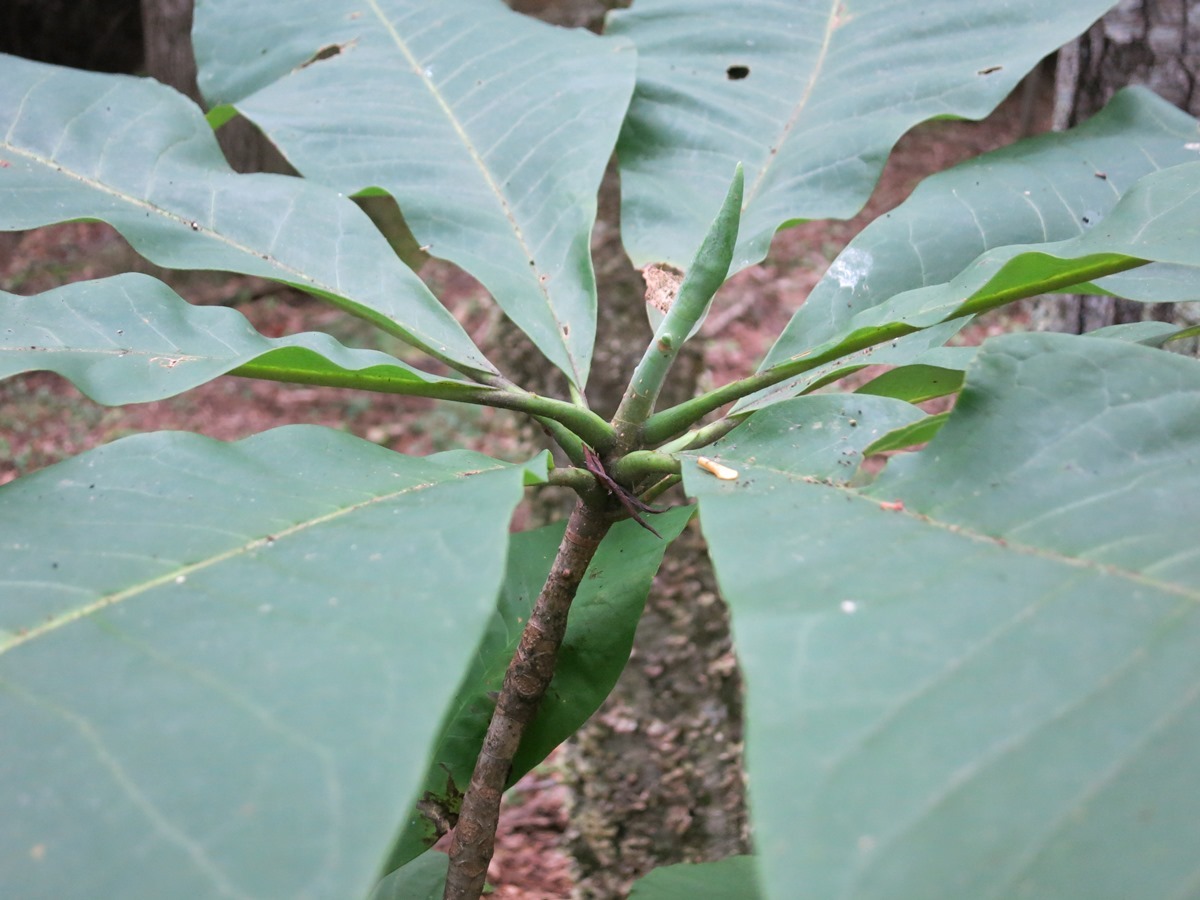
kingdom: Plantae
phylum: Tracheophyta
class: Magnoliopsida
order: Magnoliales
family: Magnoliaceae
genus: Magnolia
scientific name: Magnolia tripetala
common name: Umbrella magnolia
